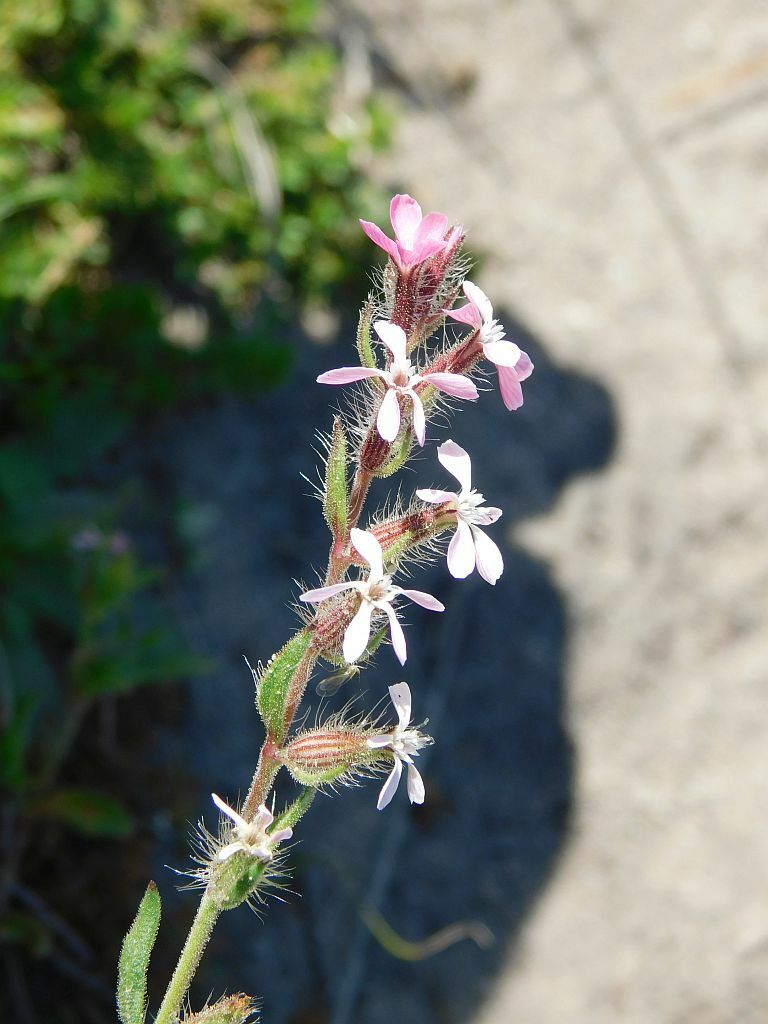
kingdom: Plantae
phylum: Tracheophyta
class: Magnoliopsida
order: Caryophyllales
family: Caryophyllaceae
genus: Silene
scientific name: Silene gallica
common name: Small-flowered catchfly
